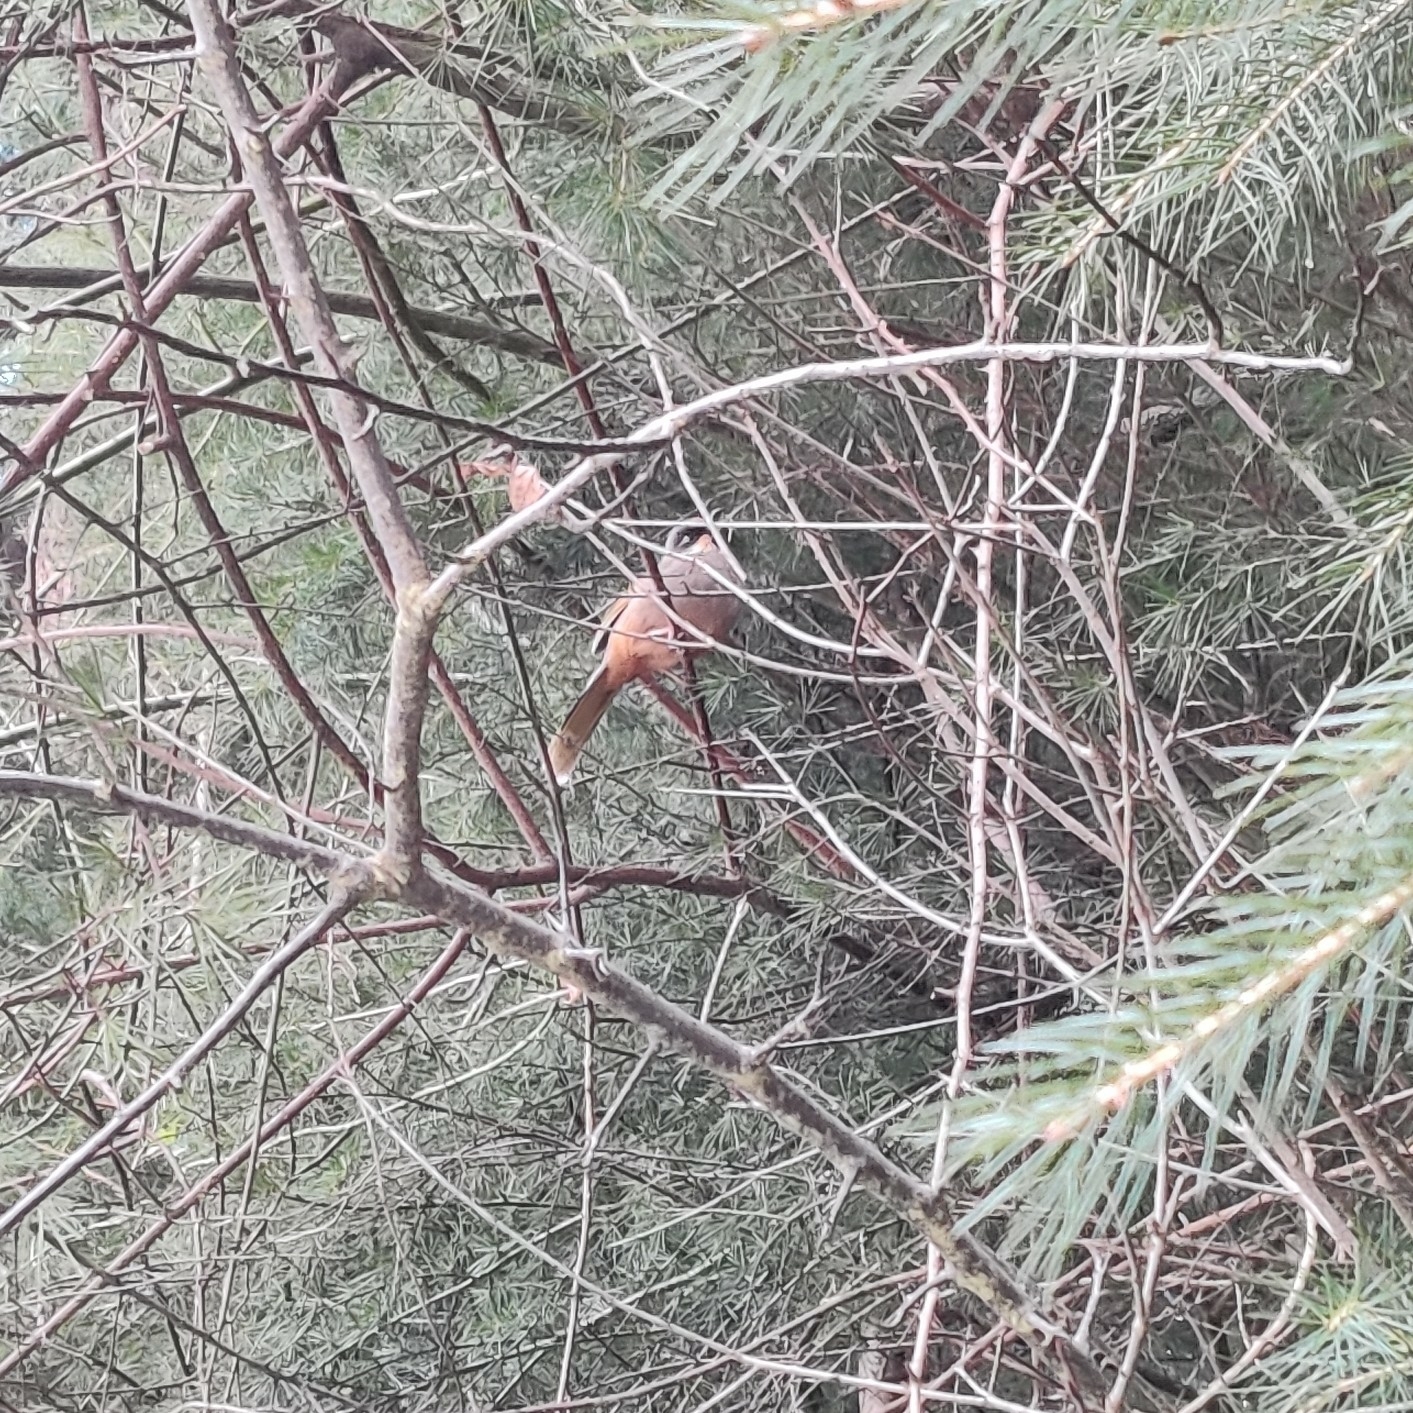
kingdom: Animalia
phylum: Chordata
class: Aves
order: Passeriformes
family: Leiothrichidae
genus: Trochalopteron
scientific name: Trochalopteron variegatum
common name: Variegated laughingthrush
